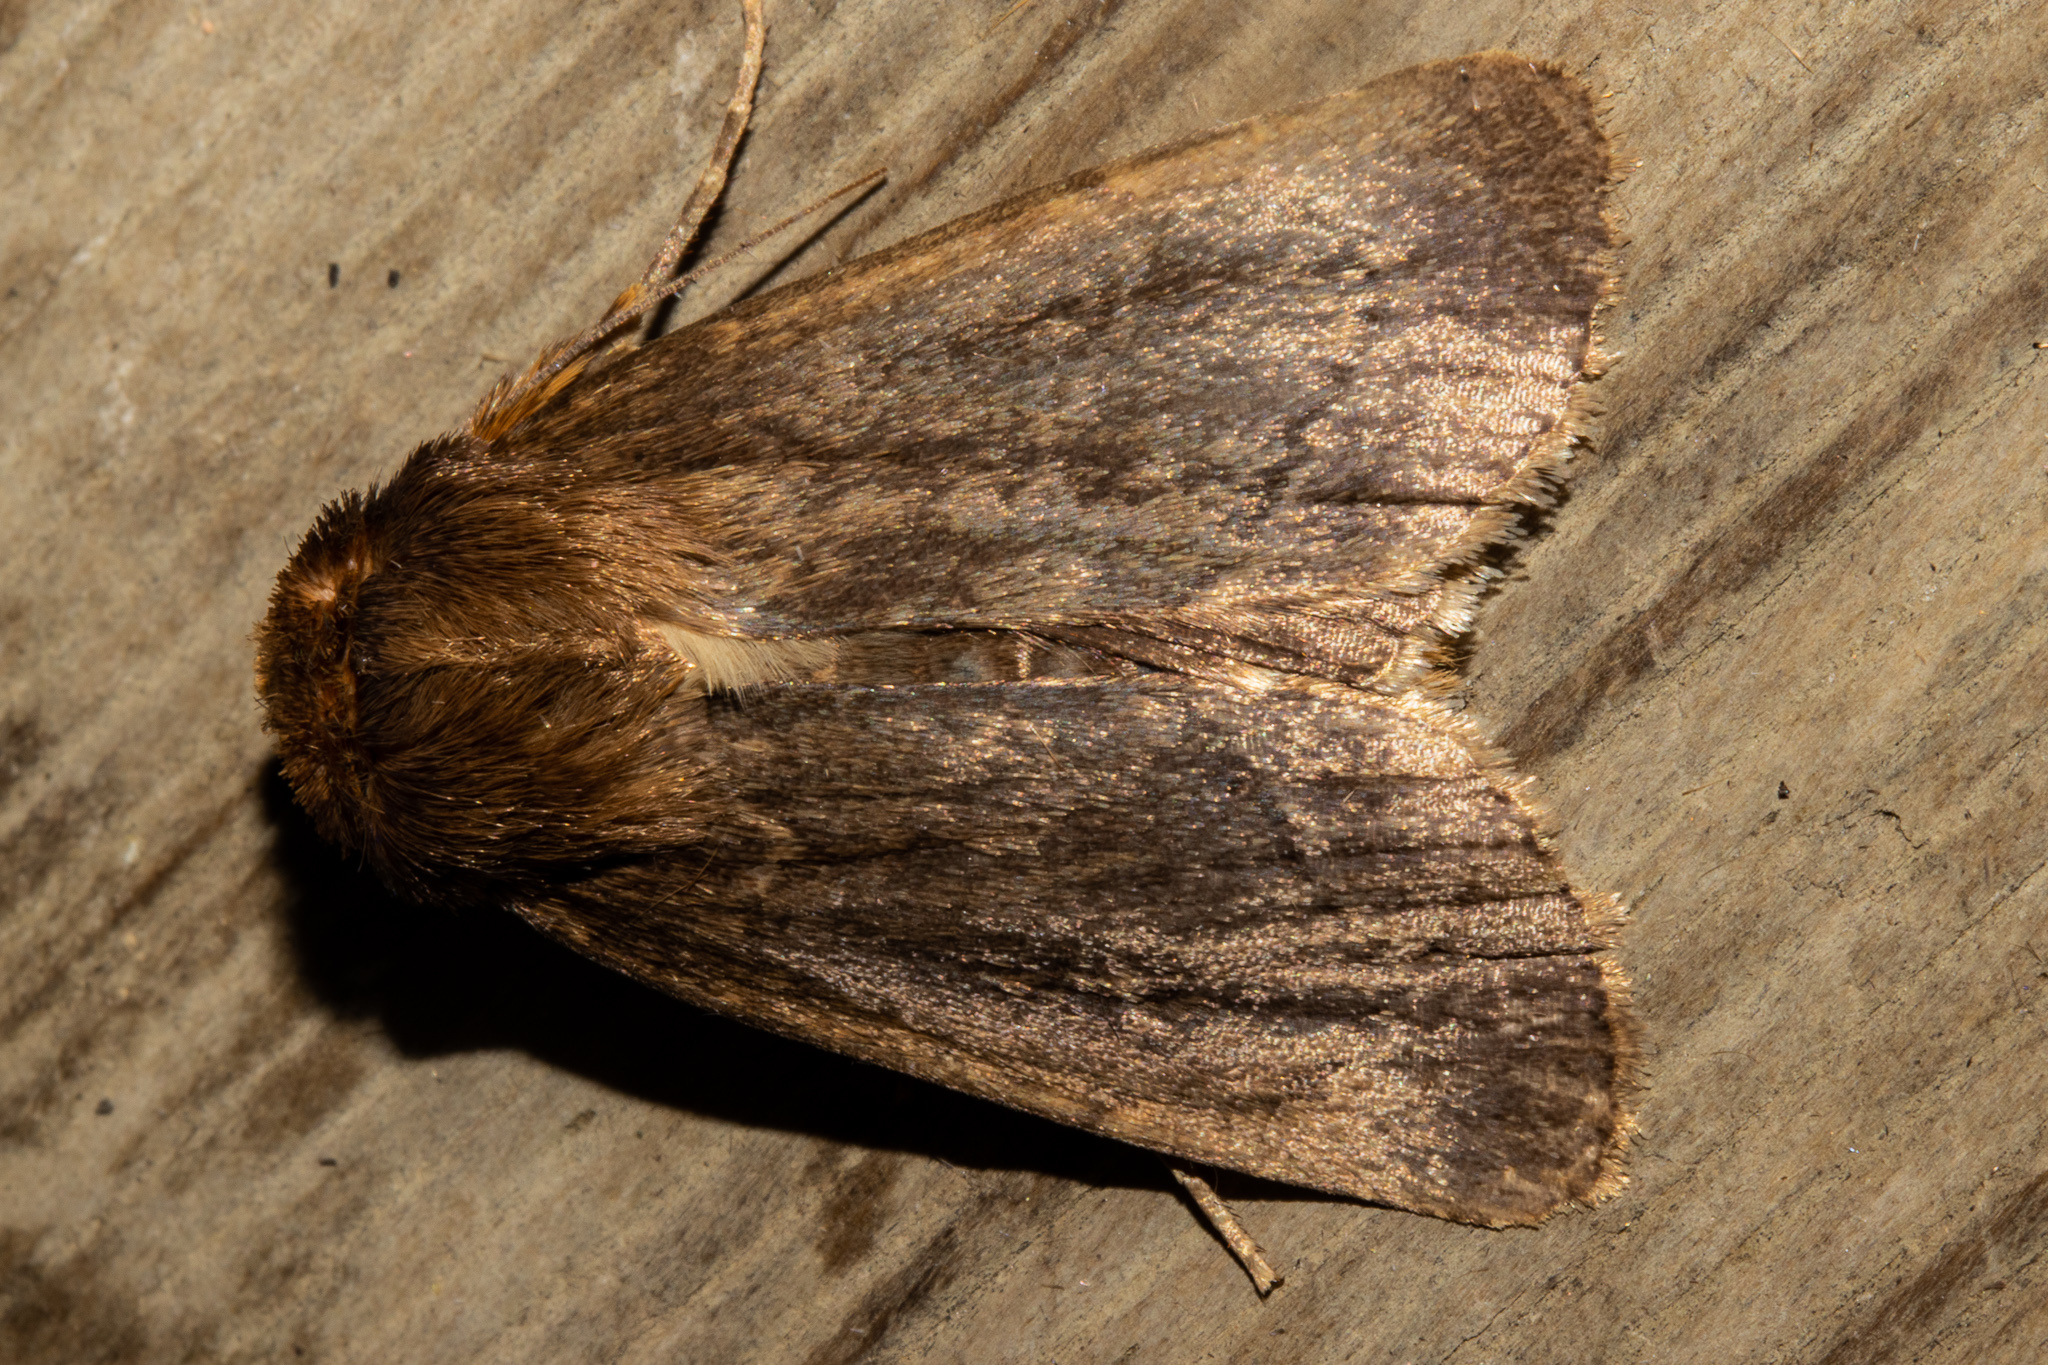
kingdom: Animalia
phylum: Arthropoda
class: Insecta
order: Lepidoptera
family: Noctuidae
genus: Bityla
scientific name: Bityla defigurata
